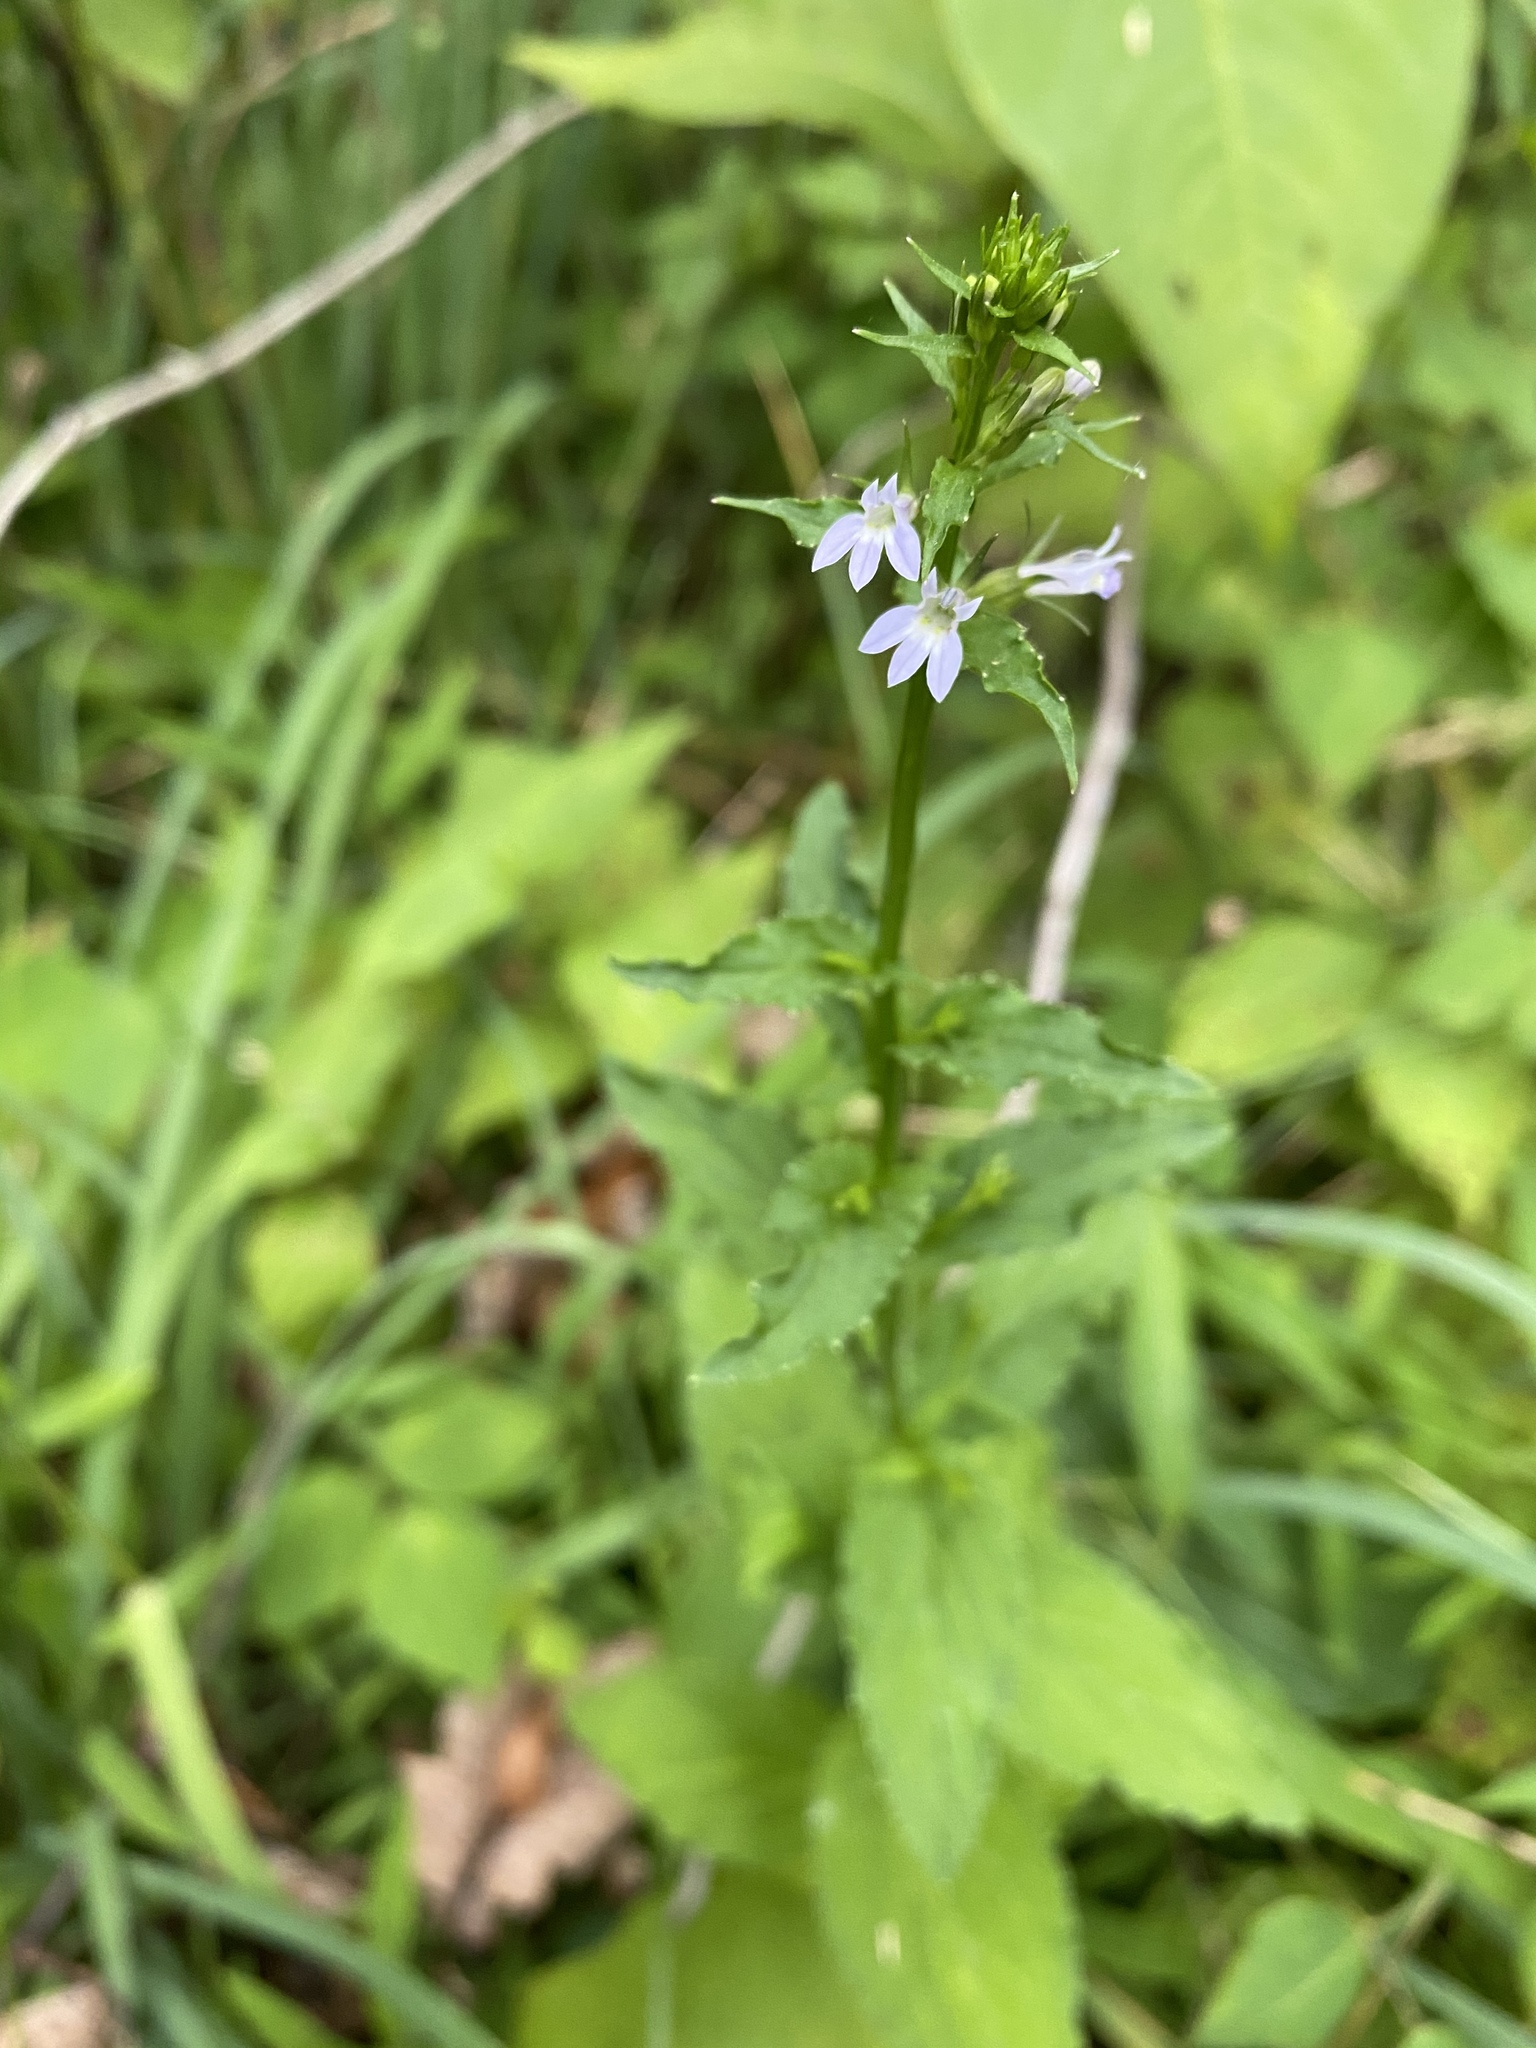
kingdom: Plantae
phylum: Tracheophyta
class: Magnoliopsida
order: Asterales
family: Campanulaceae
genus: Lobelia
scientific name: Lobelia inflata
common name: Indian tobacco
